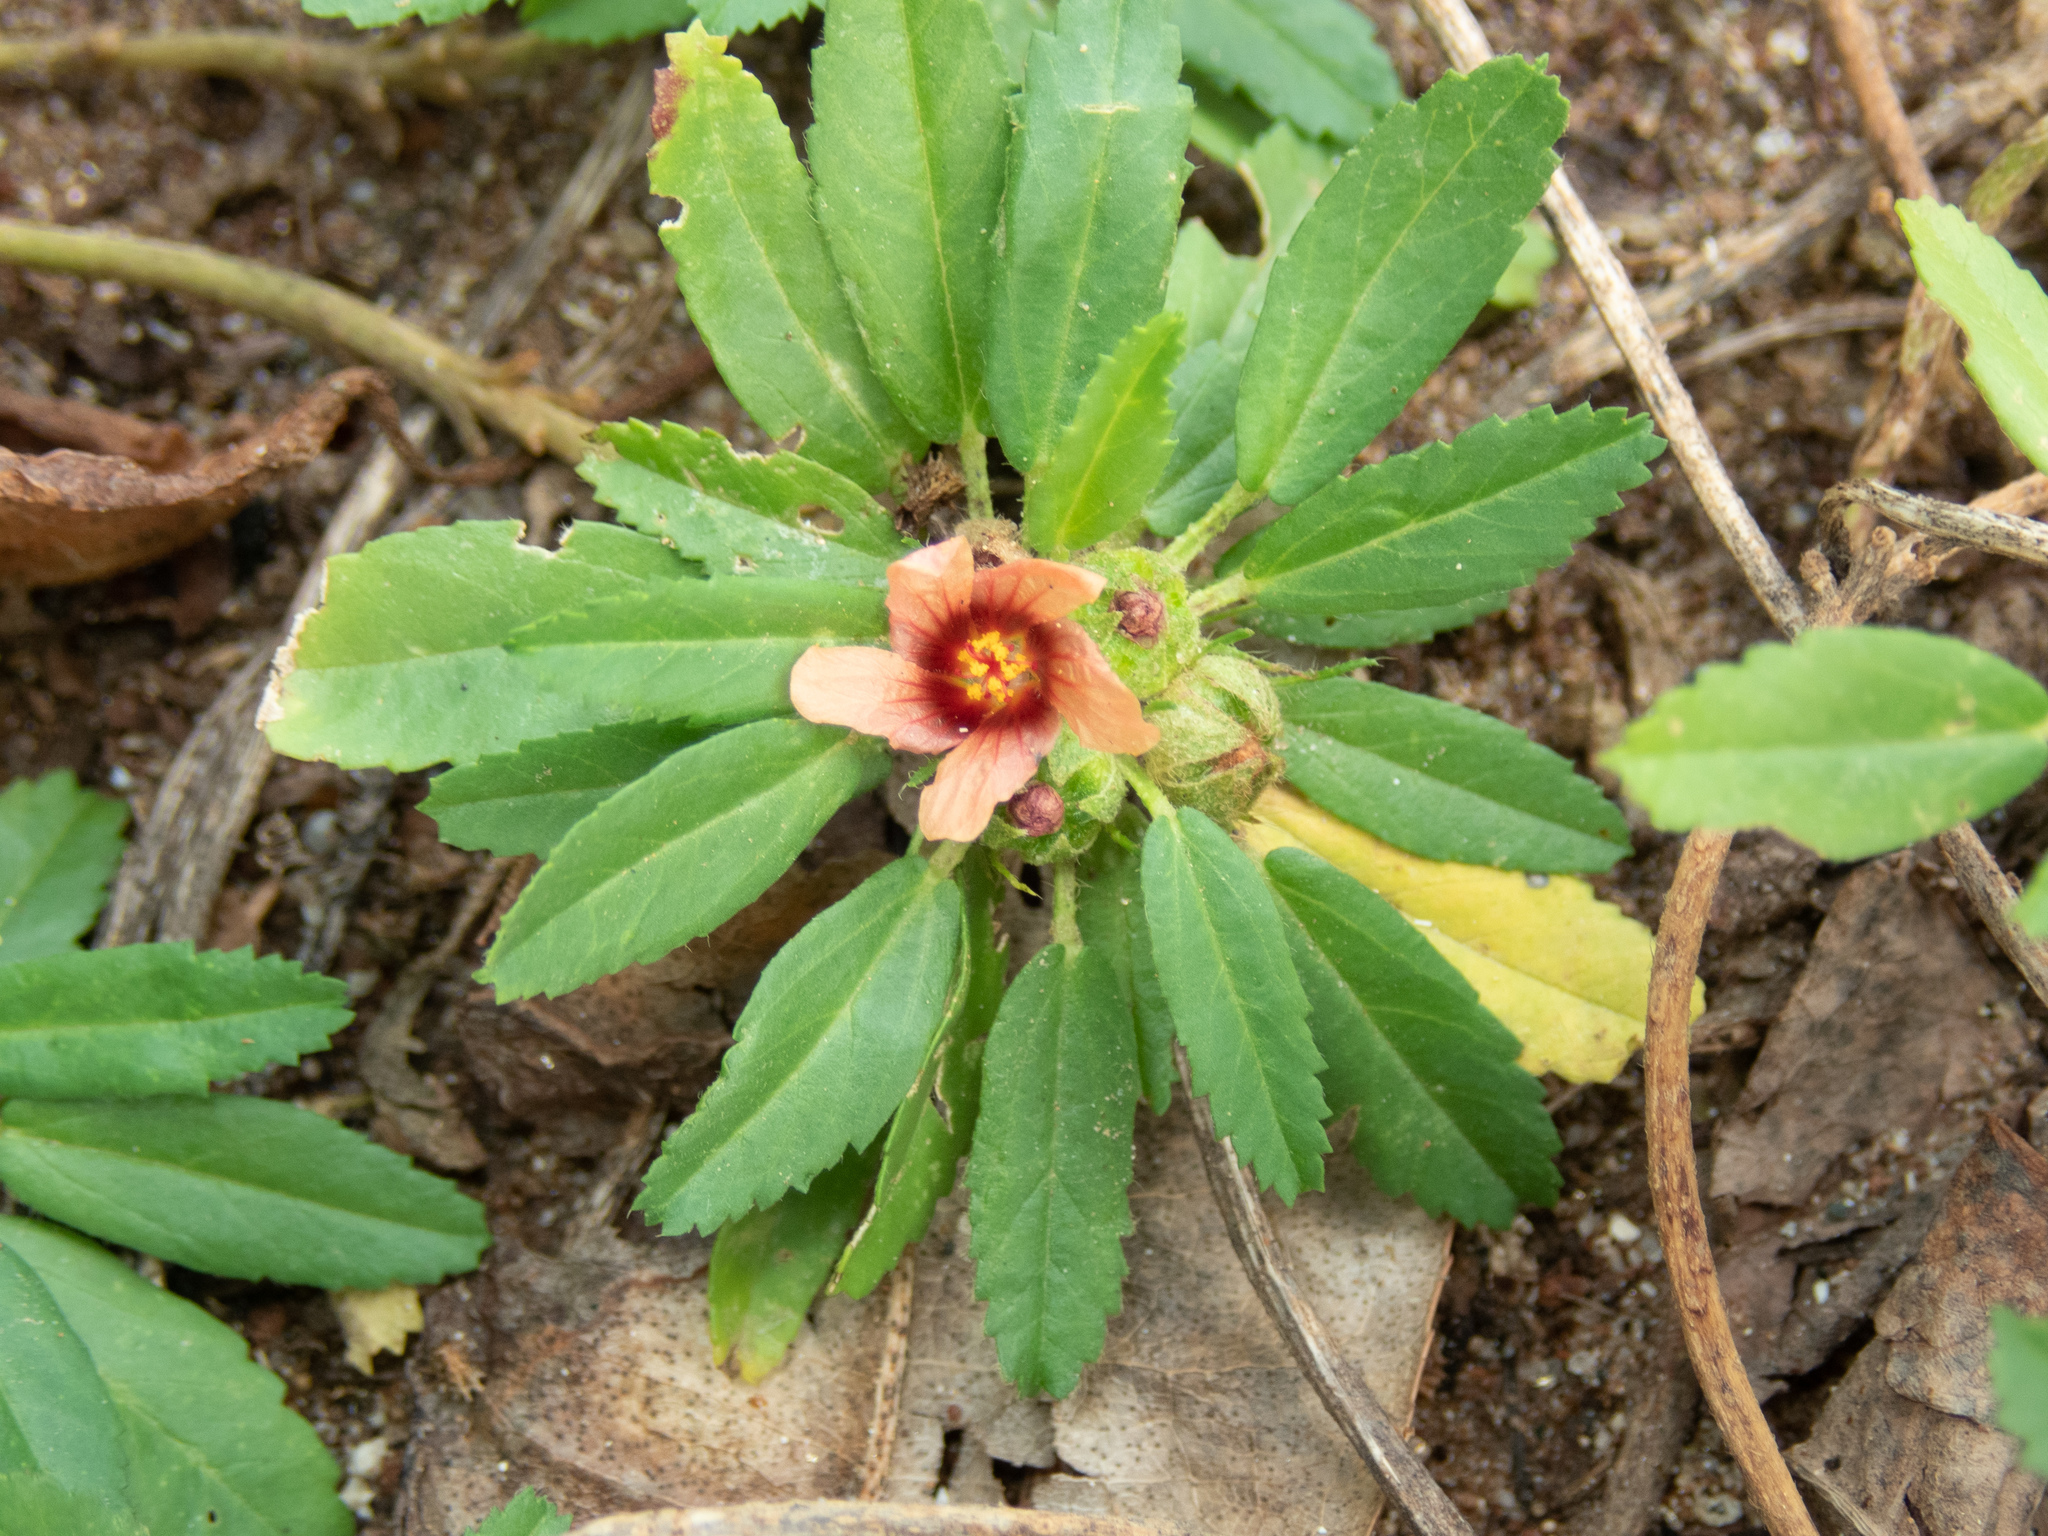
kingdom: Plantae
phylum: Tracheophyta
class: Magnoliopsida
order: Malvales
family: Malvaceae
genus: Sida
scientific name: Sida ciliaris
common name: Bracted fanpetals
